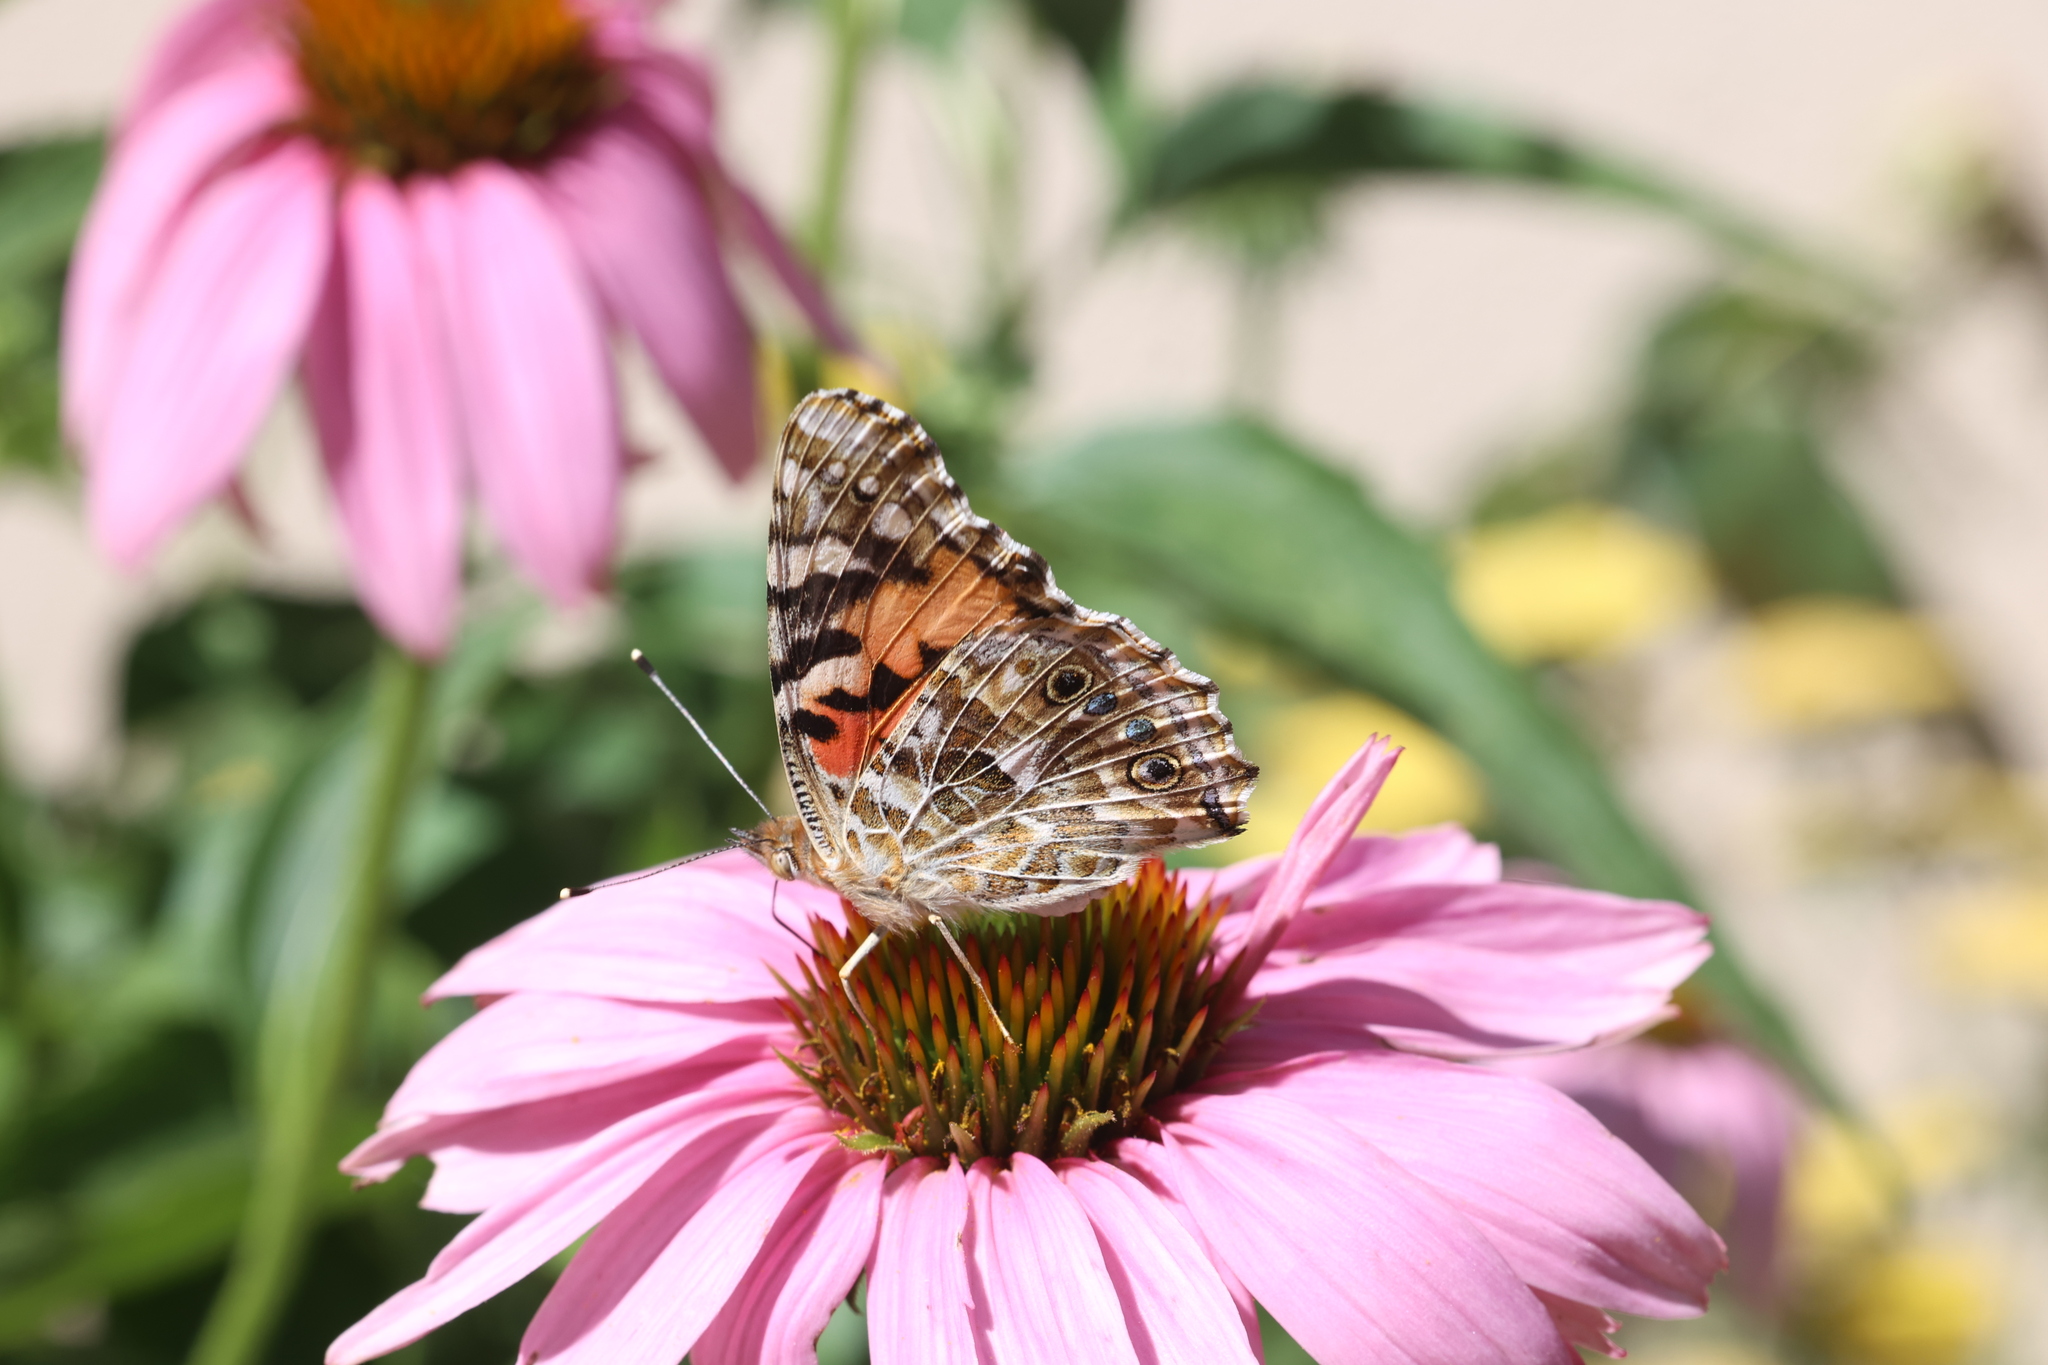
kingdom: Animalia
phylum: Arthropoda
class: Insecta
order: Lepidoptera
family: Nymphalidae
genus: Vanessa
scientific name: Vanessa cardui
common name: Painted lady
